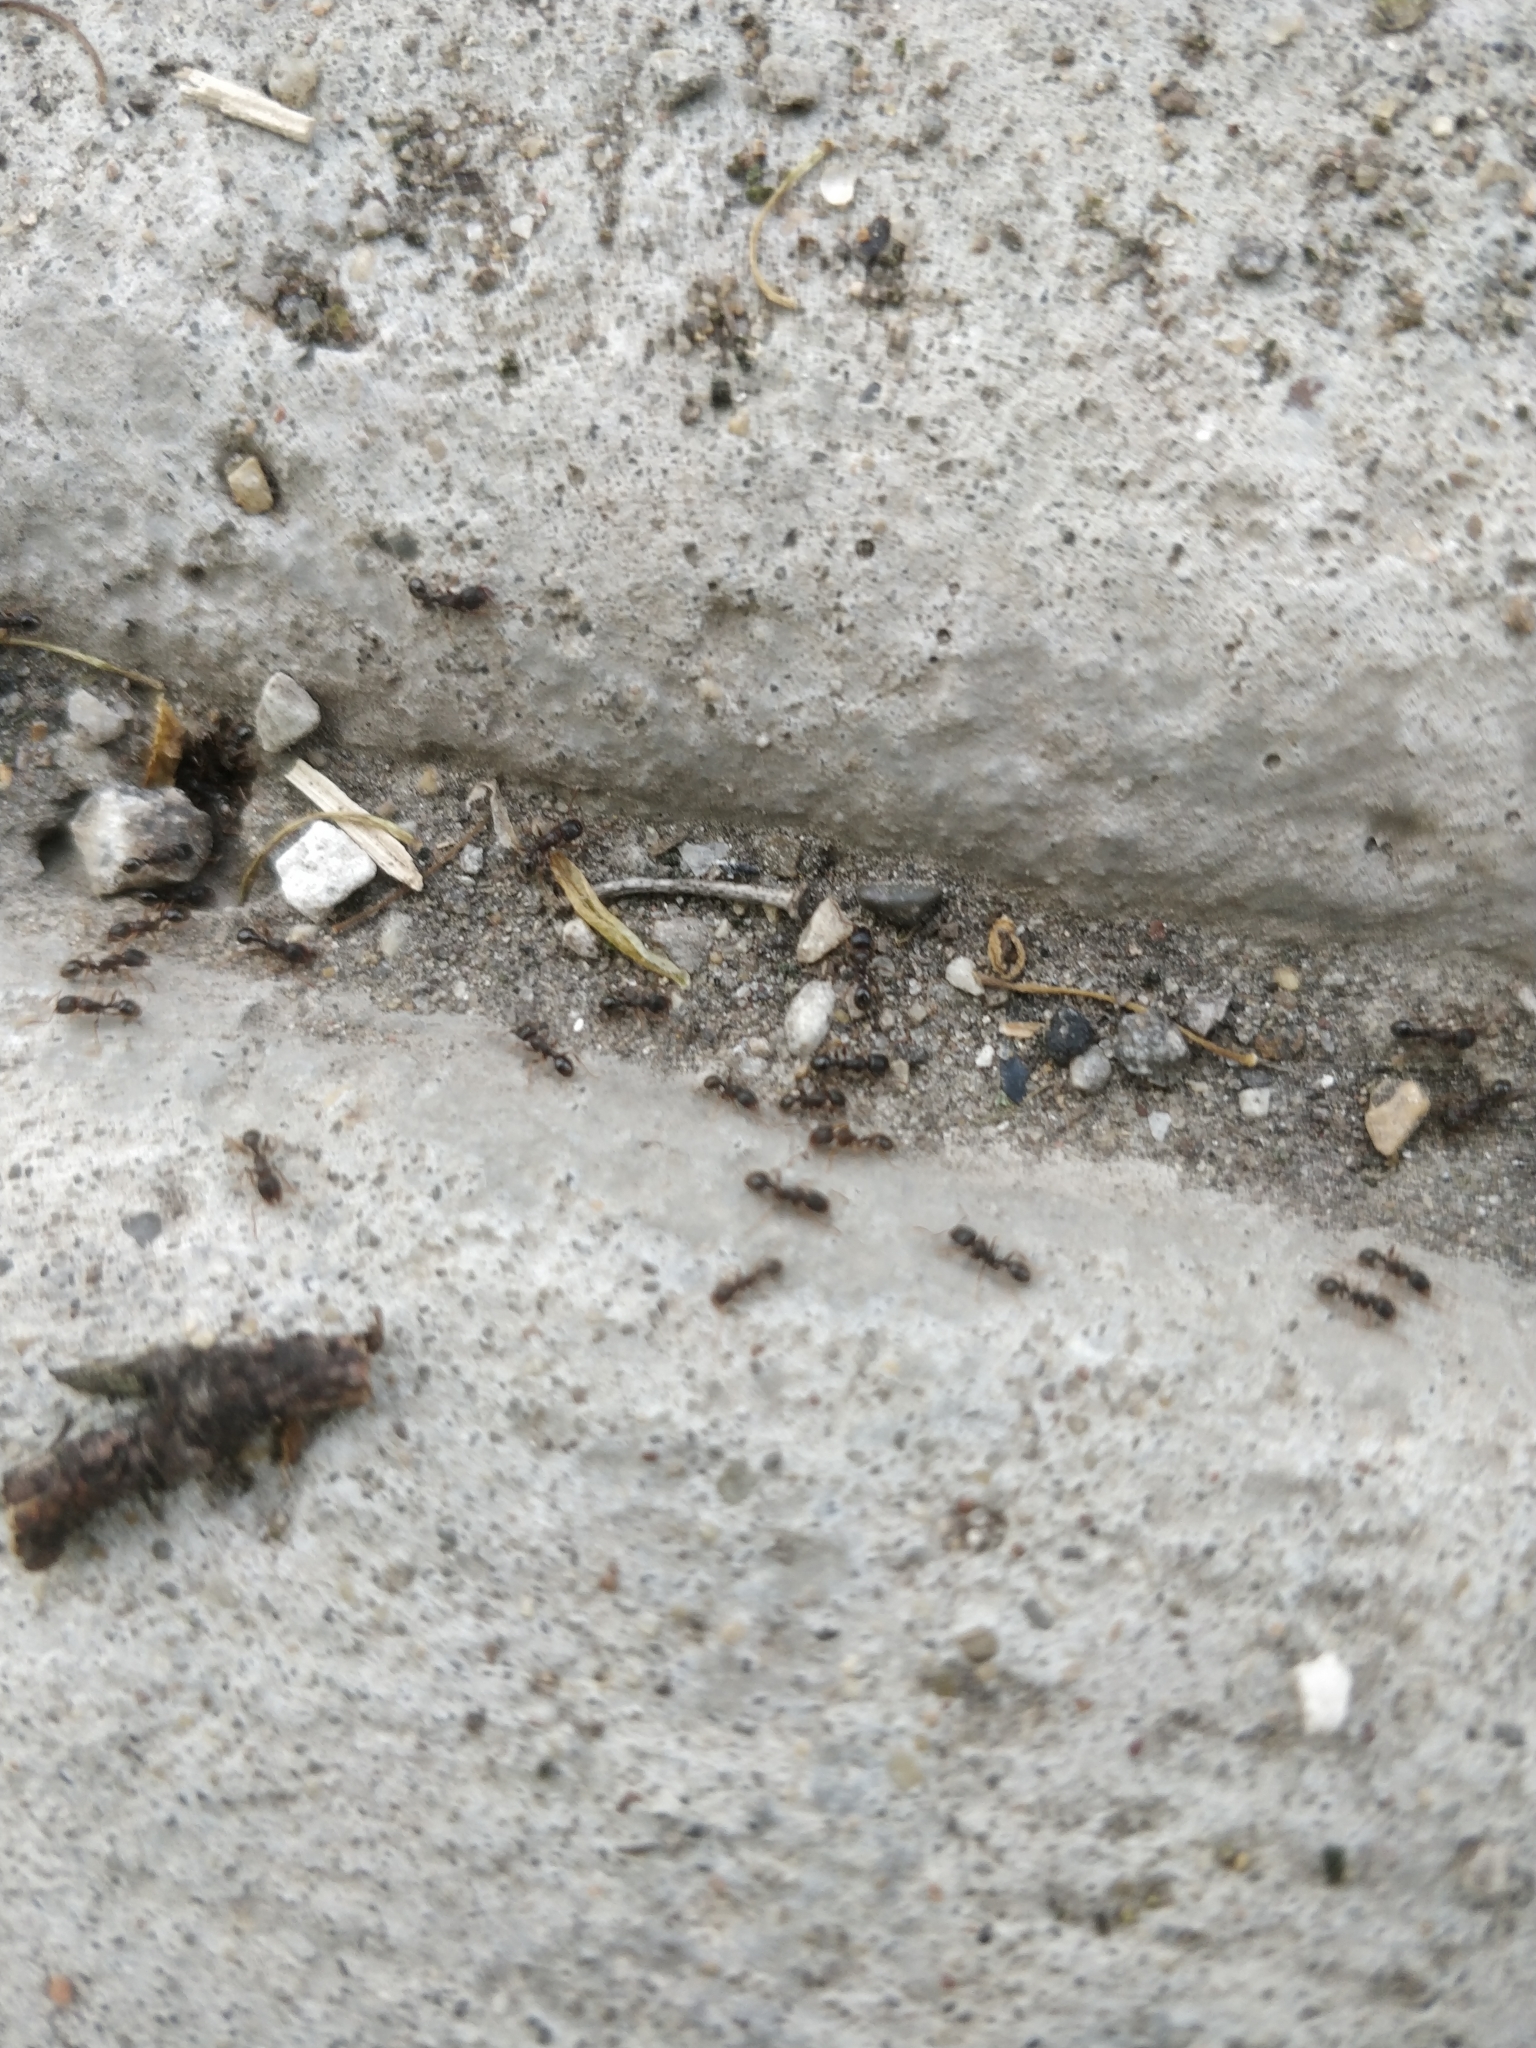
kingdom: Animalia
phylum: Arthropoda
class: Insecta
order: Hymenoptera
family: Formicidae
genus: Tetramorium
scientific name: Tetramorium immigrans
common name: Pavement ant
